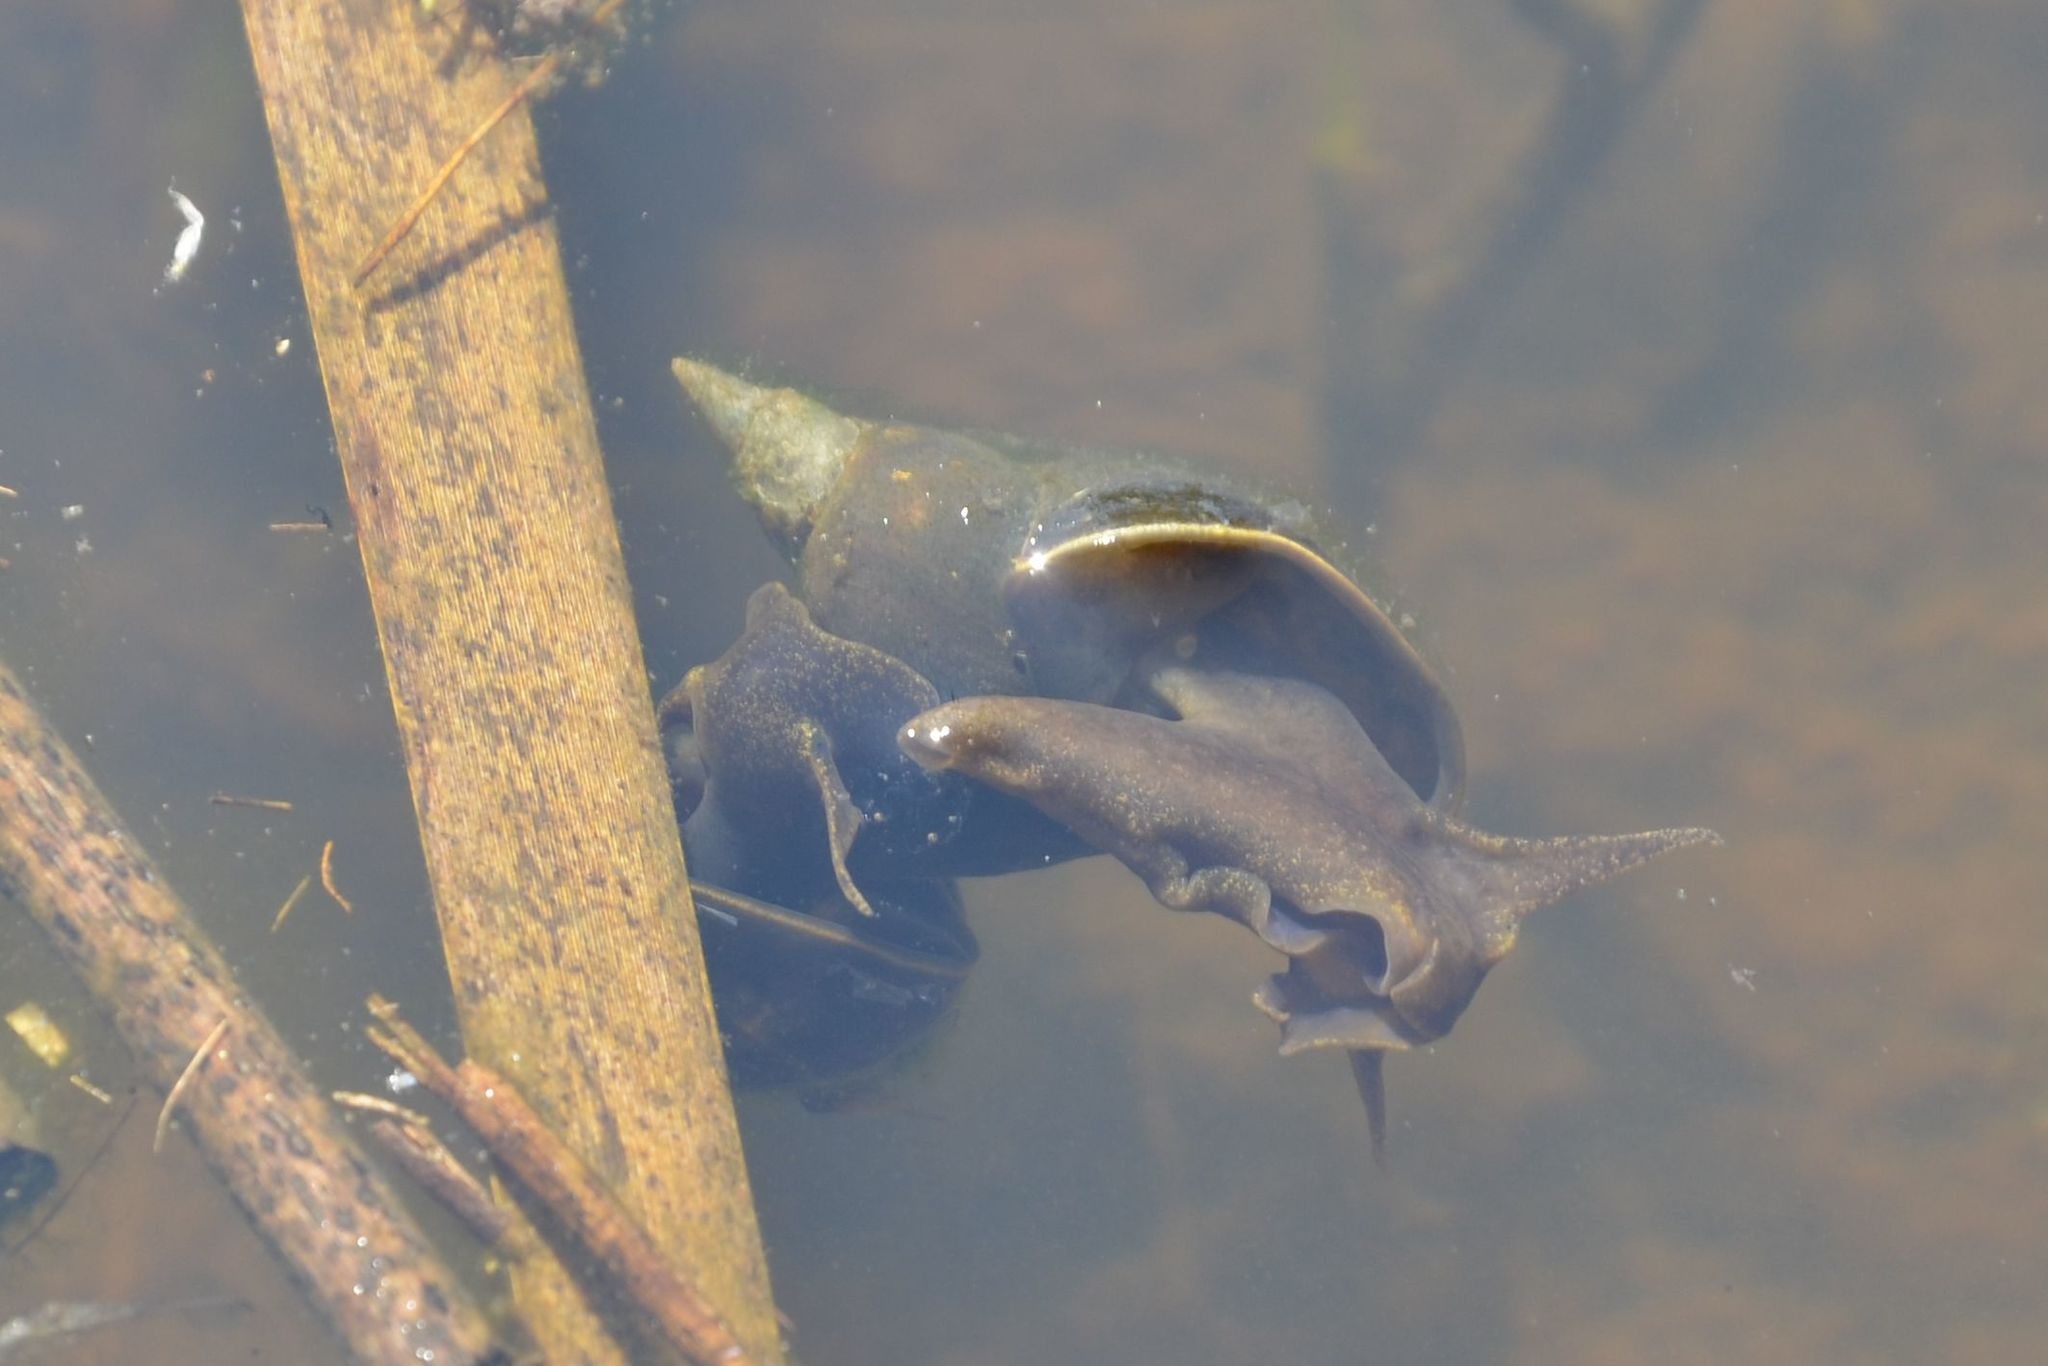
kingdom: Animalia
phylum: Mollusca
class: Gastropoda
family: Lymnaeidae
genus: Lymnaea
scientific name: Lymnaea stagnalis
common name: Great pond snail
